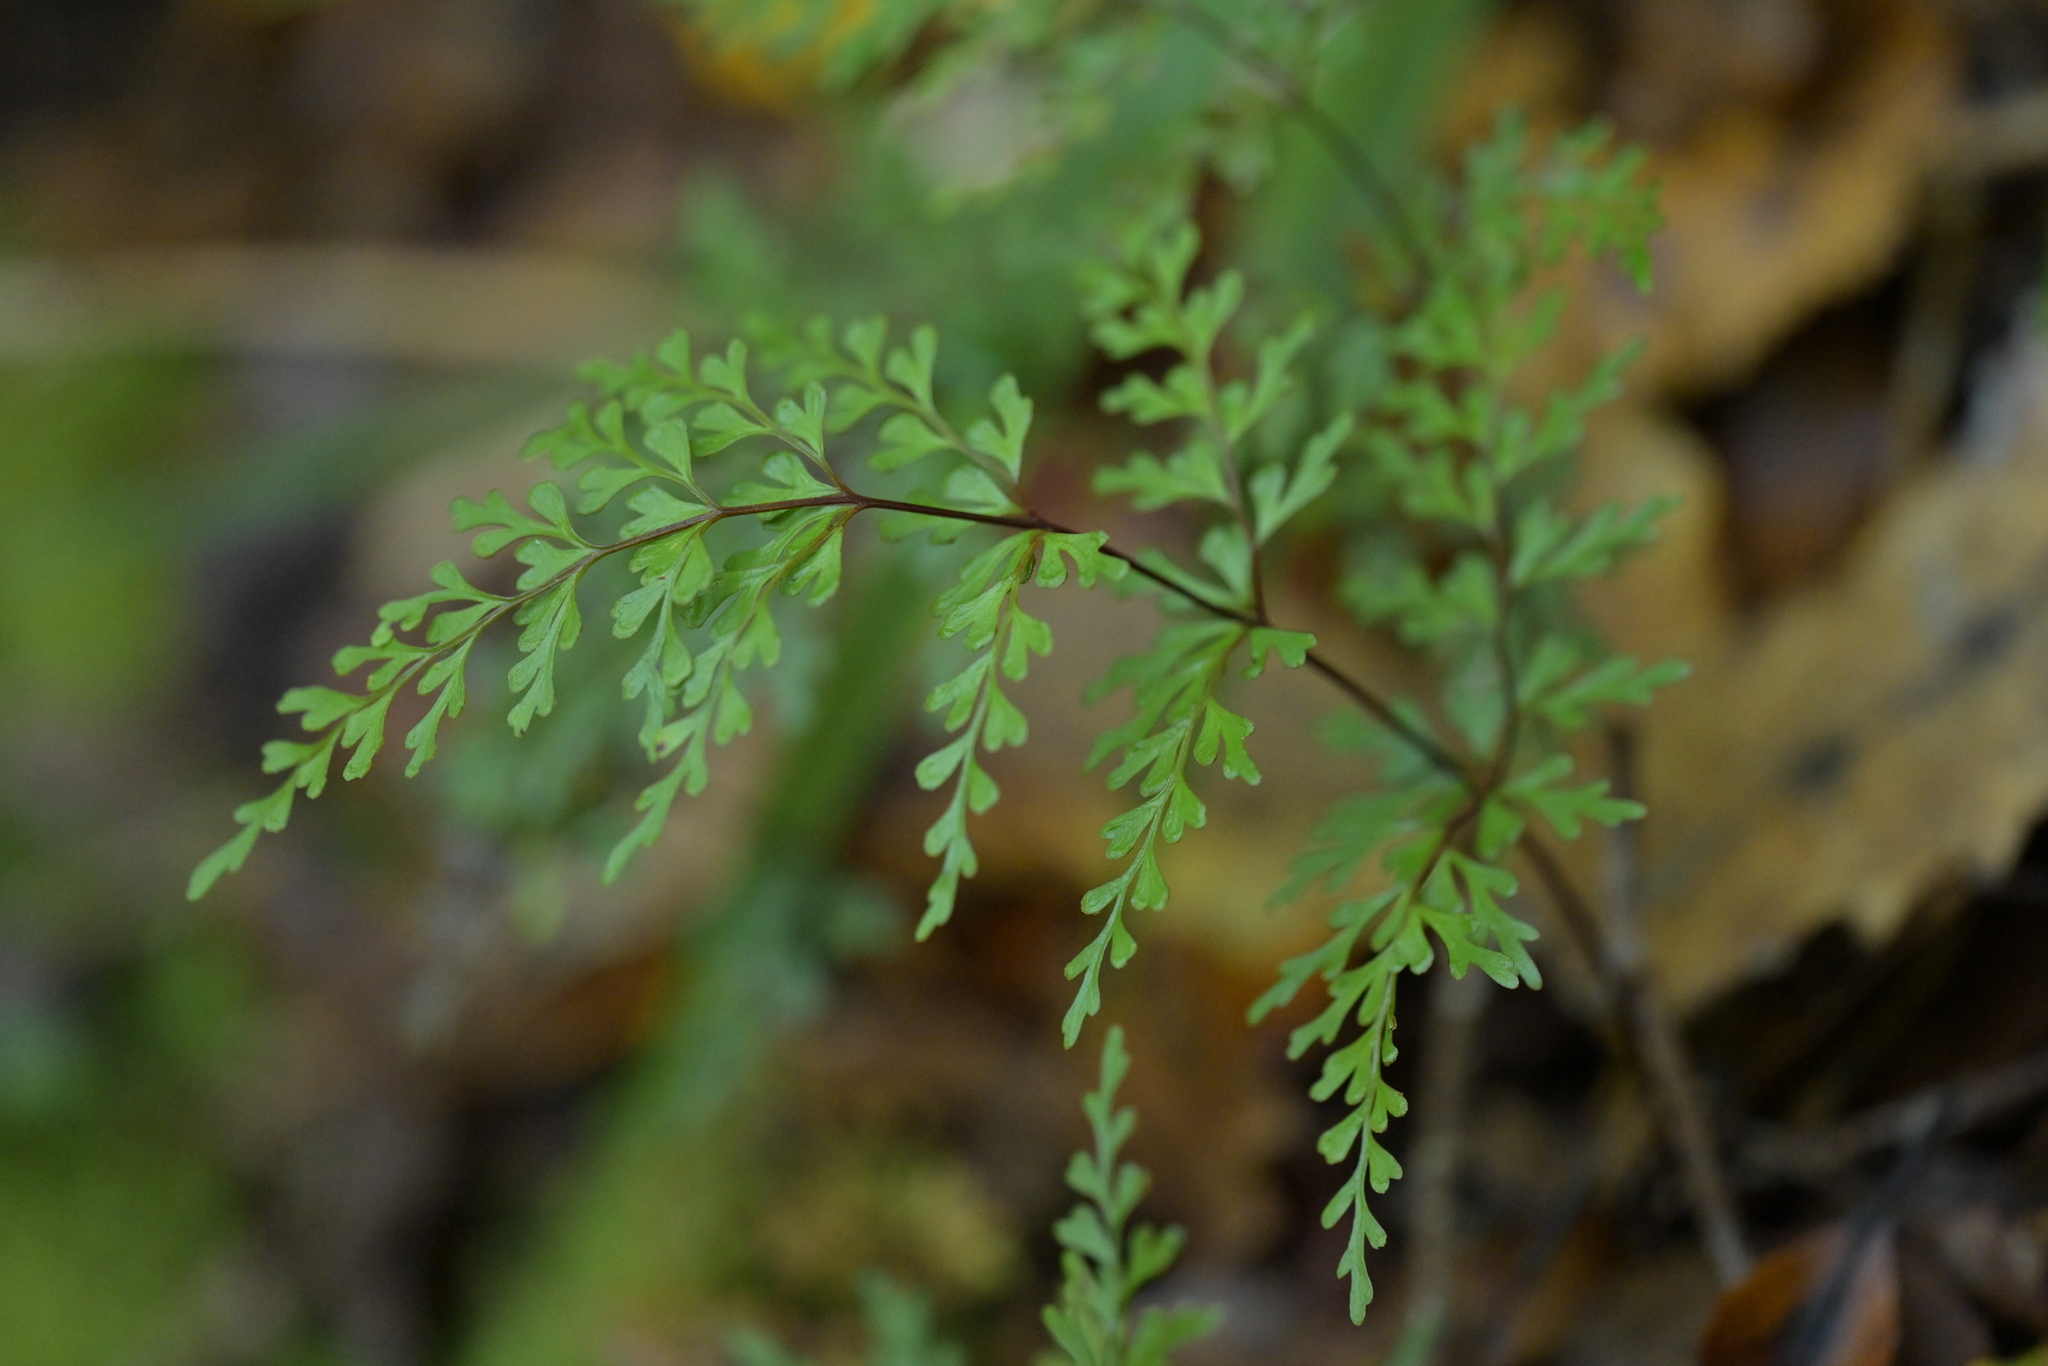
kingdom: Plantae
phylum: Tracheophyta
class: Polypodiopsida
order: Polypodiales
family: Lindsaeaceae
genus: Lindsaea
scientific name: Lindsaea trichomanoides
